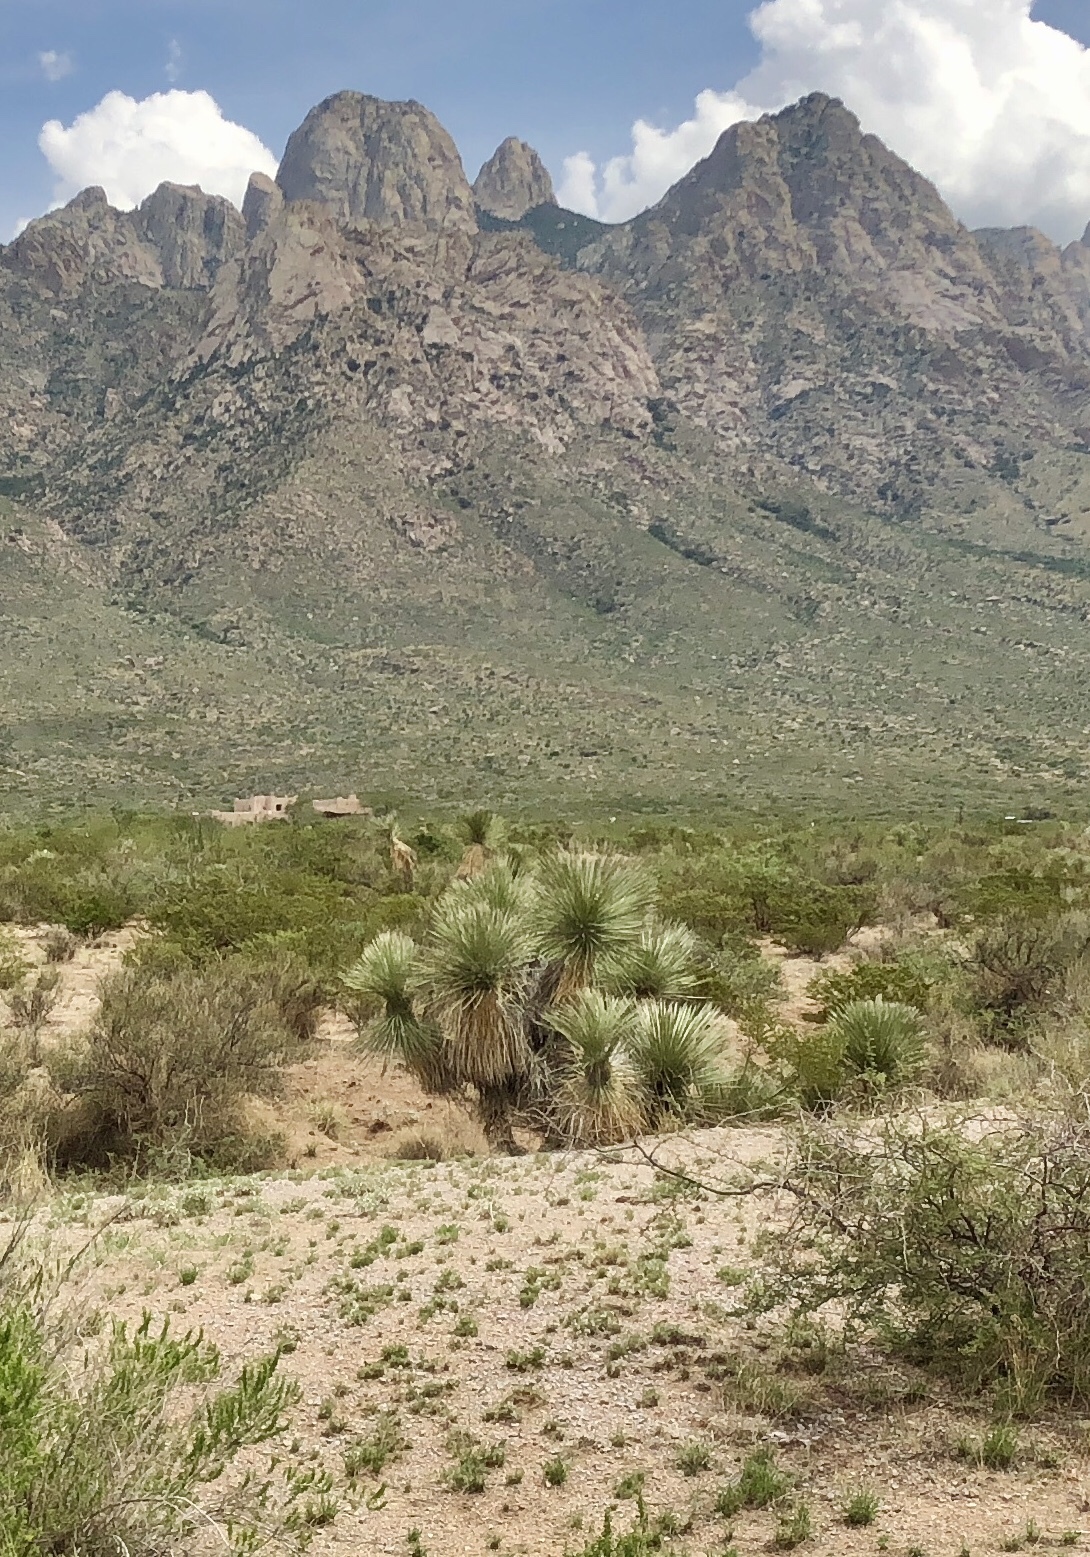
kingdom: Plantae
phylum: Tracheophyta
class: Liliopsida
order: Asparagales
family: Asparagaceae
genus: Yucca
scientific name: Yucca elata
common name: Palmella
